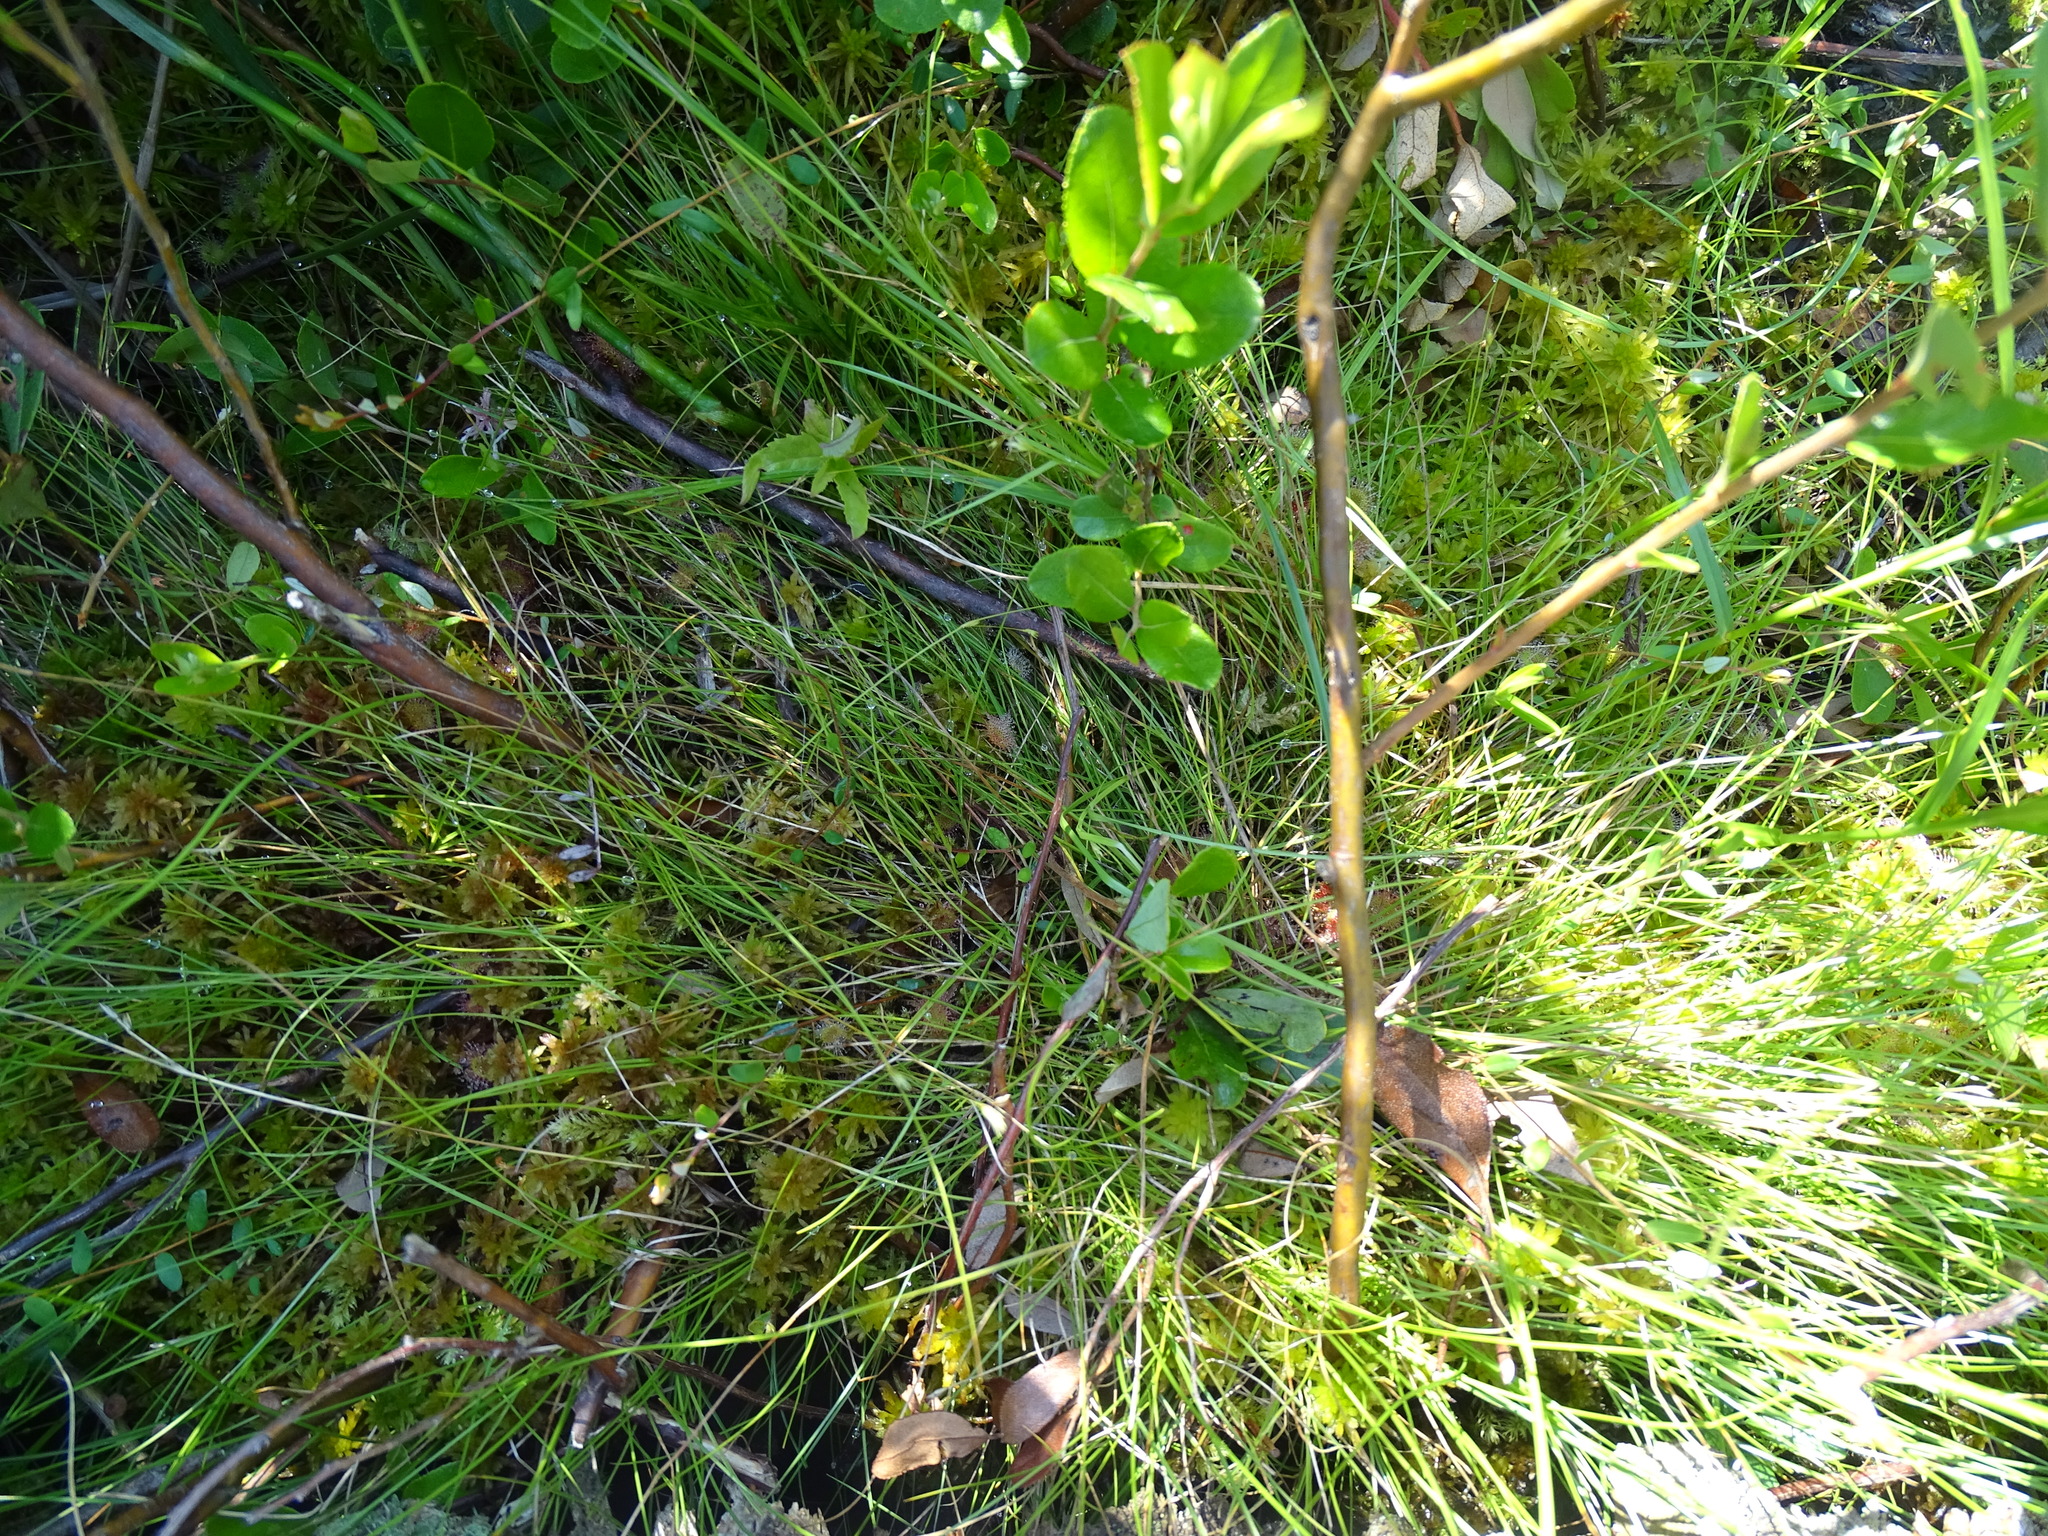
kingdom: Plantae
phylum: Tracheophyta
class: Liliopsida
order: Poales
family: Cyperaceae
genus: Carex
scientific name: Carex trisperma
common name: Three-seeded sedge
